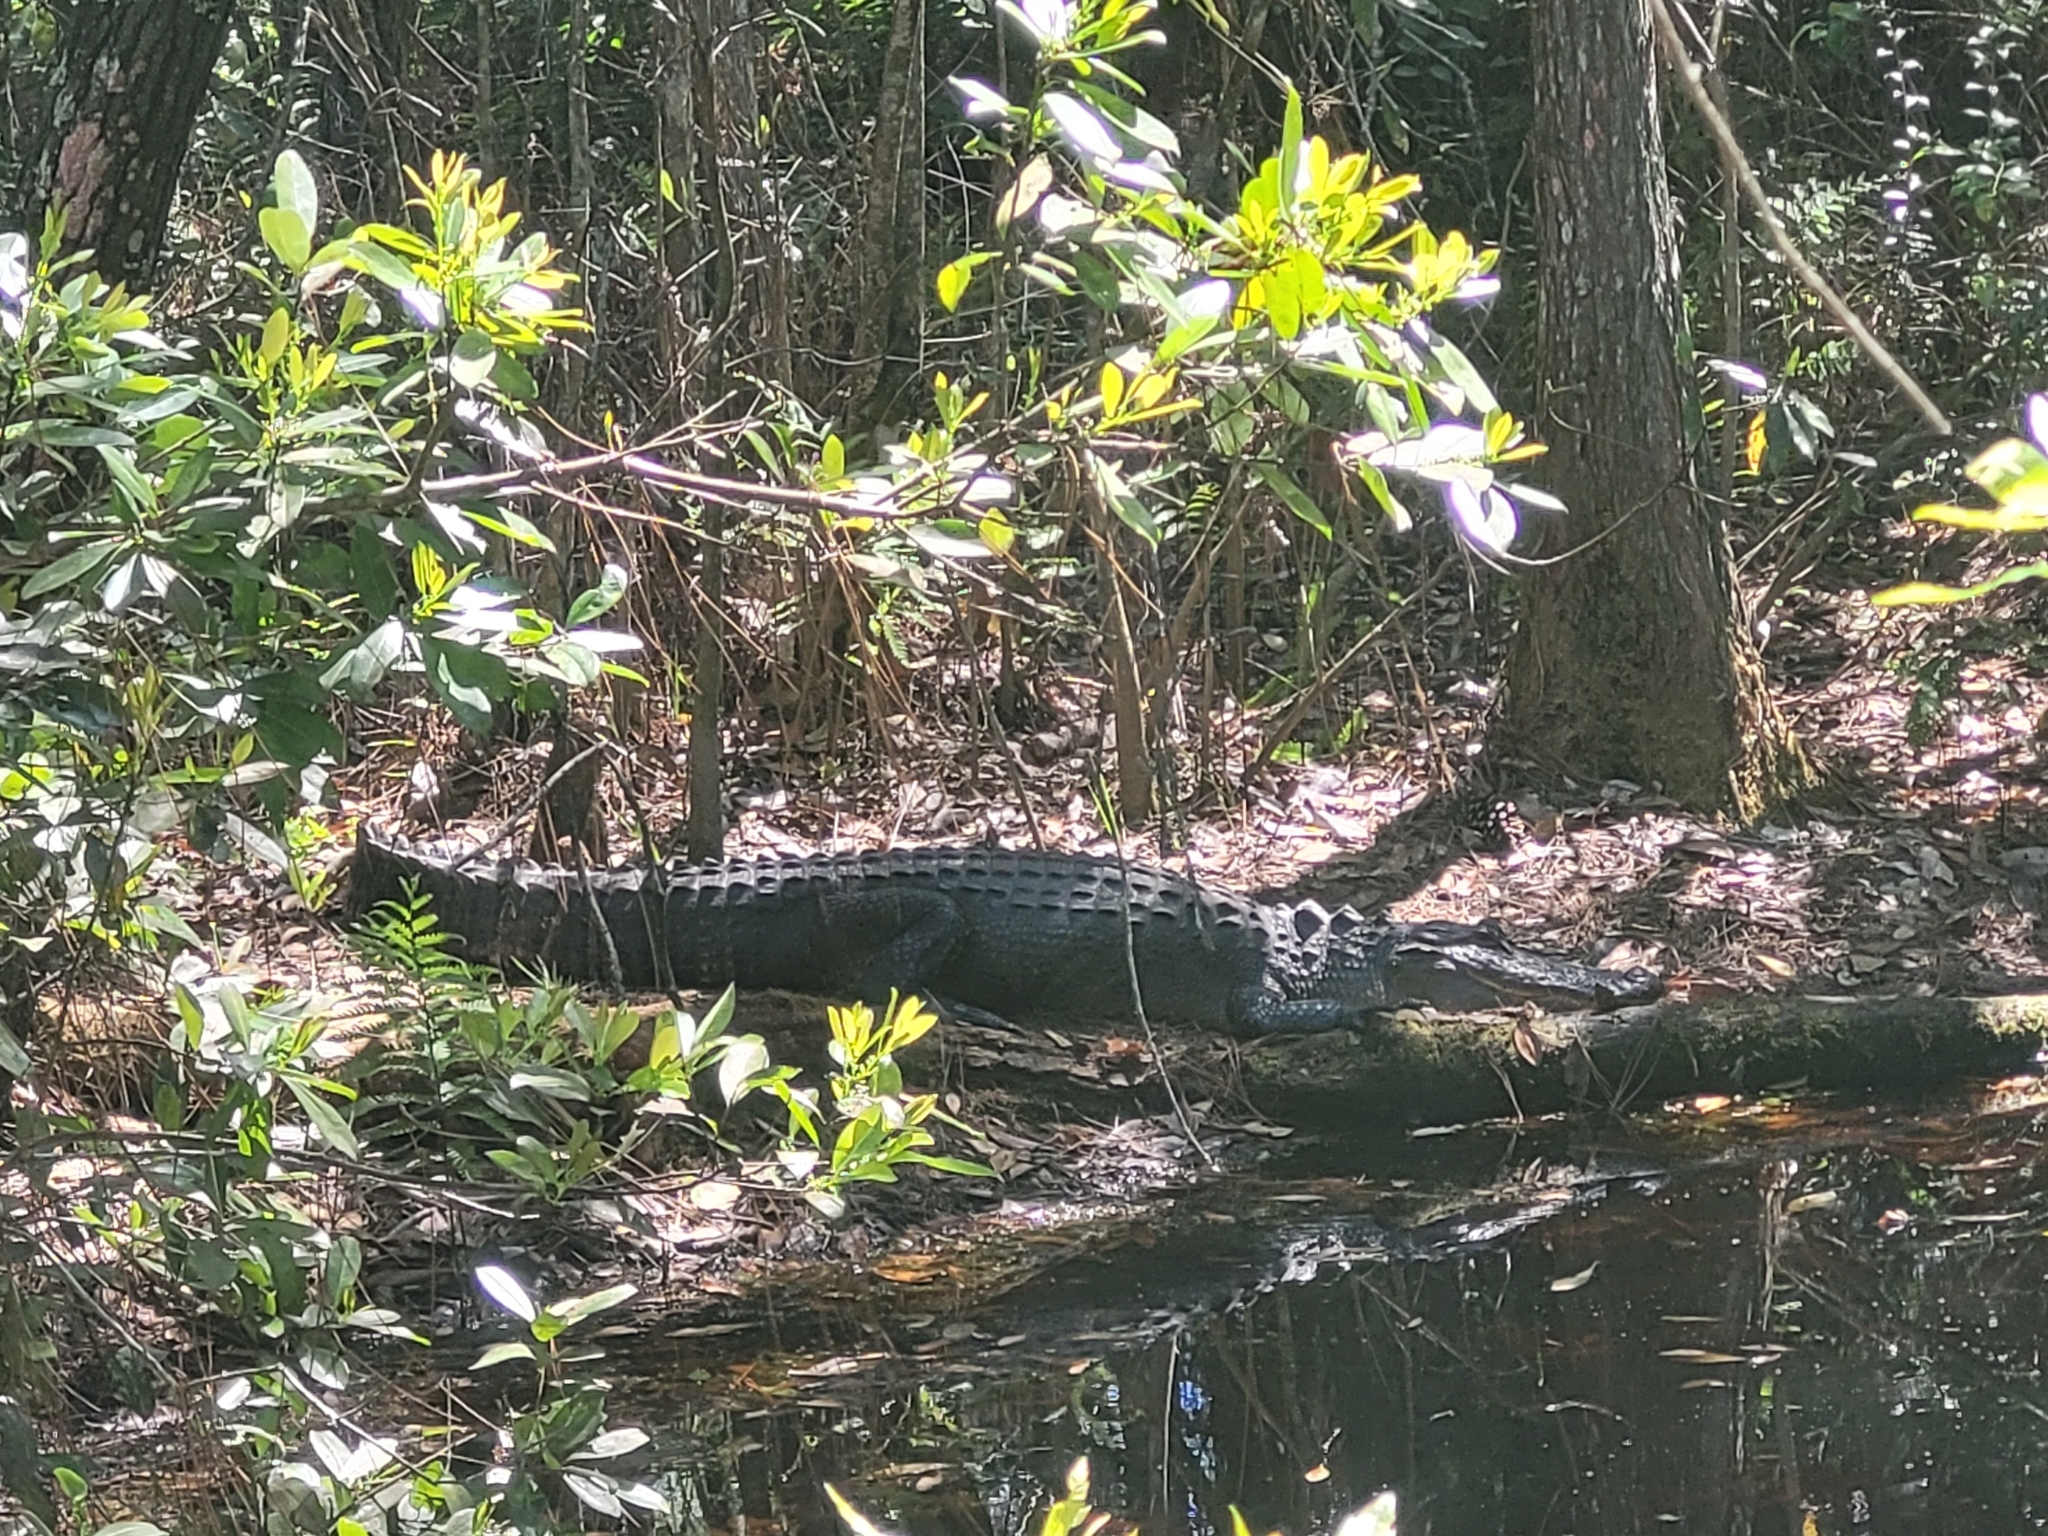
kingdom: Animalia
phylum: Chordata
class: Crocodylia
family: Alligatoridae
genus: Alligator
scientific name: Alligator mississippiensis
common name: American alligator
